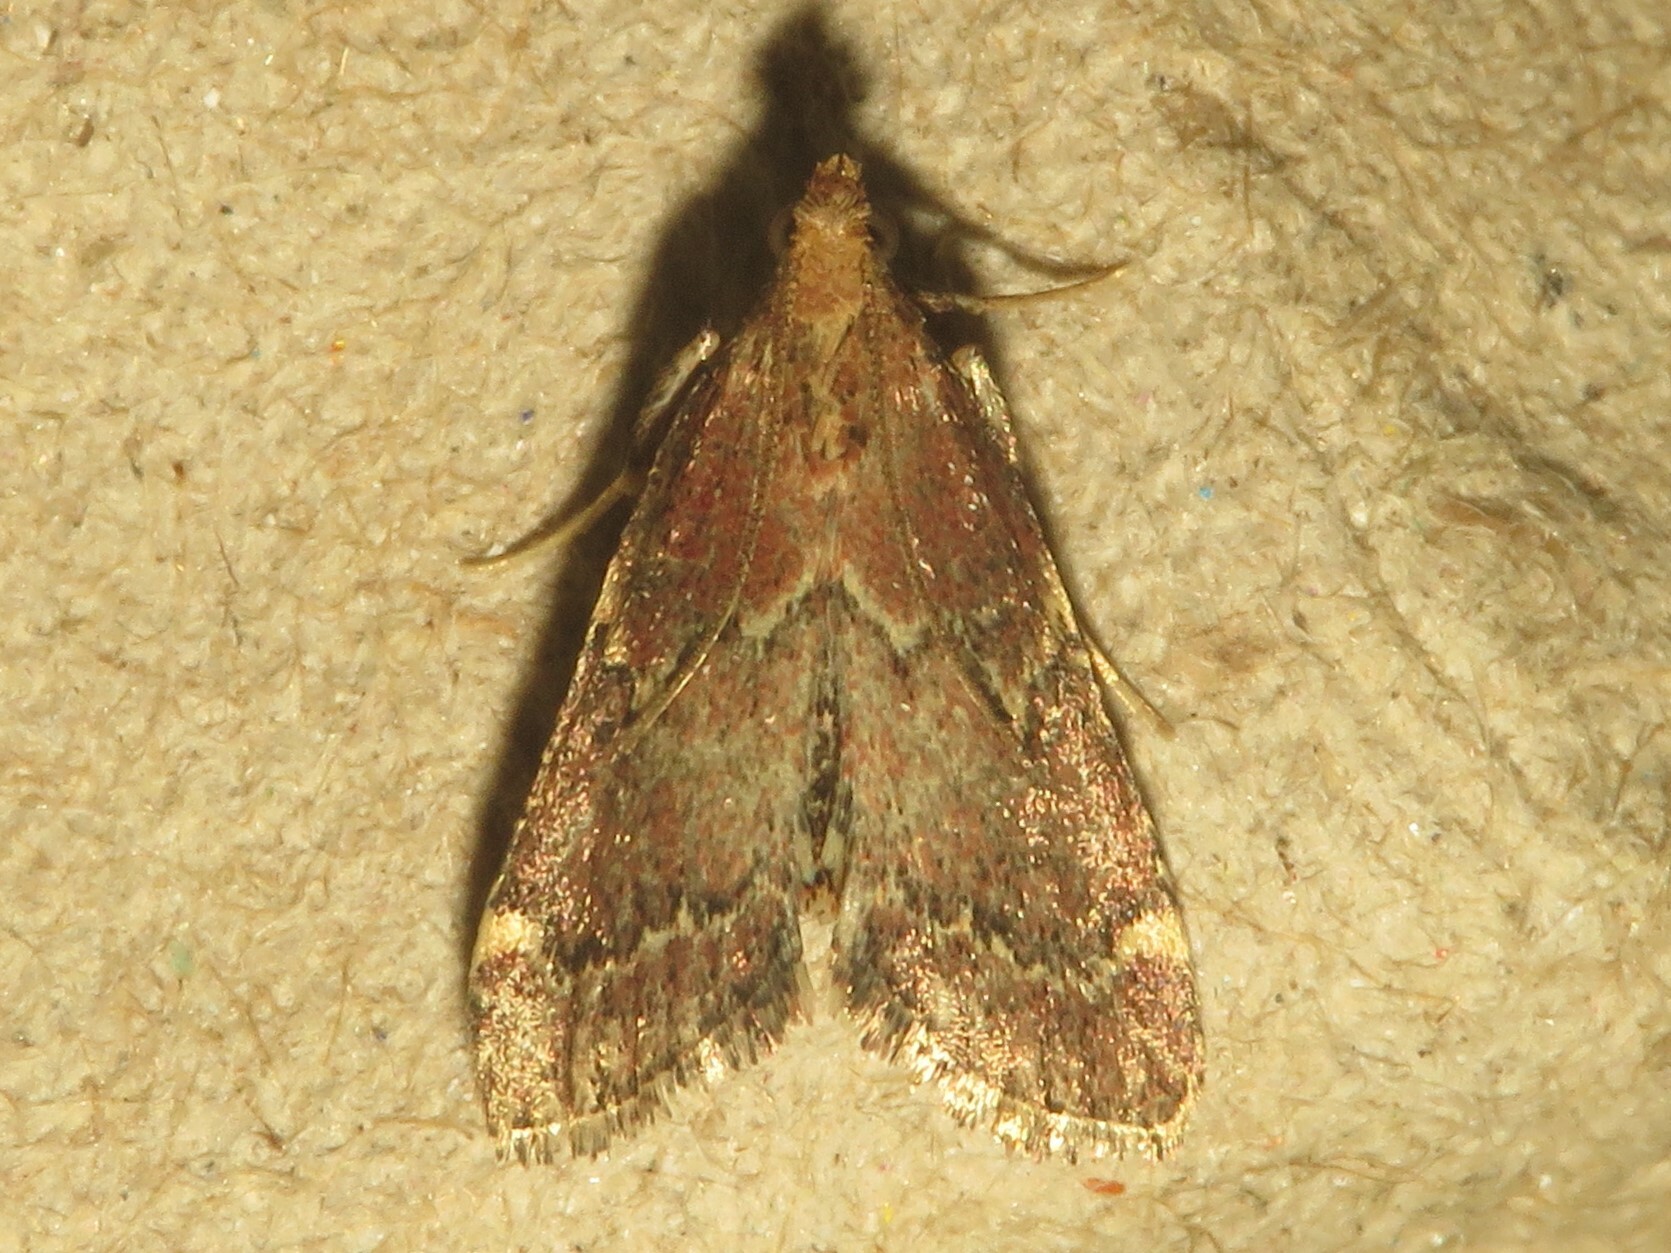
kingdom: Animalia
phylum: Arthropoda
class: Insecta
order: Lepidoptera
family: Pyralidae
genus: Hypsopygia
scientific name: Hypsopygia intermedialis
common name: Red-shawled moth
